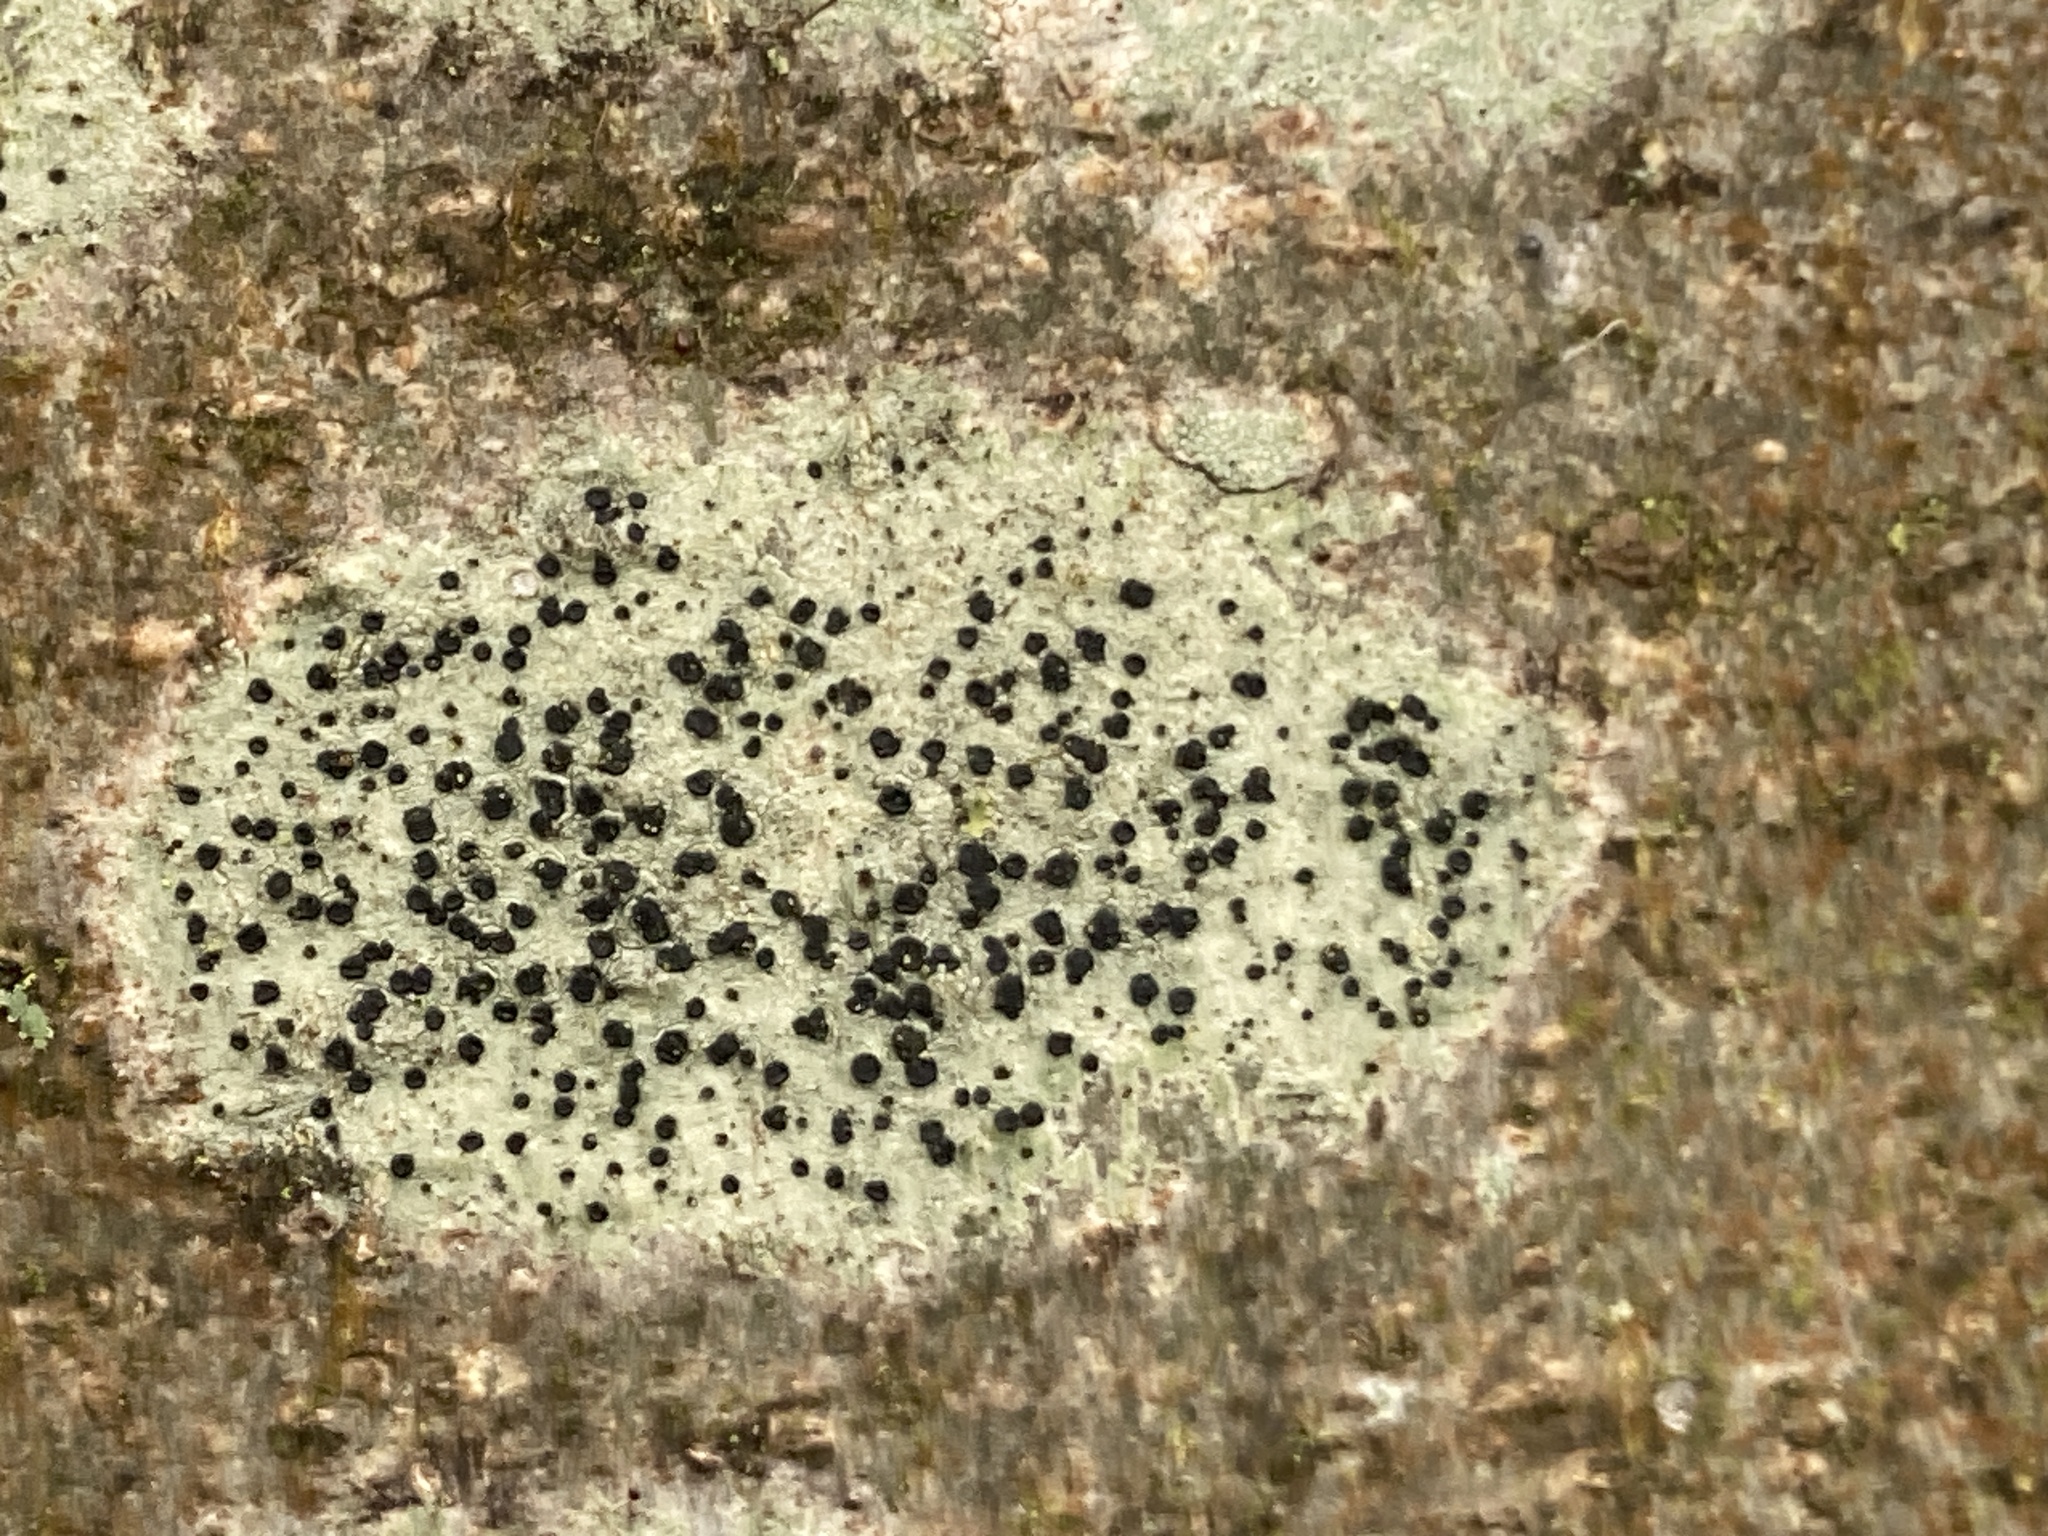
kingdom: Fungi
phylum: Ascomycota
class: Lecanoromycetes
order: Lecanorales
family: Lecanoraceae
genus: Lecidella
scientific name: Lecidella elaeochroma
